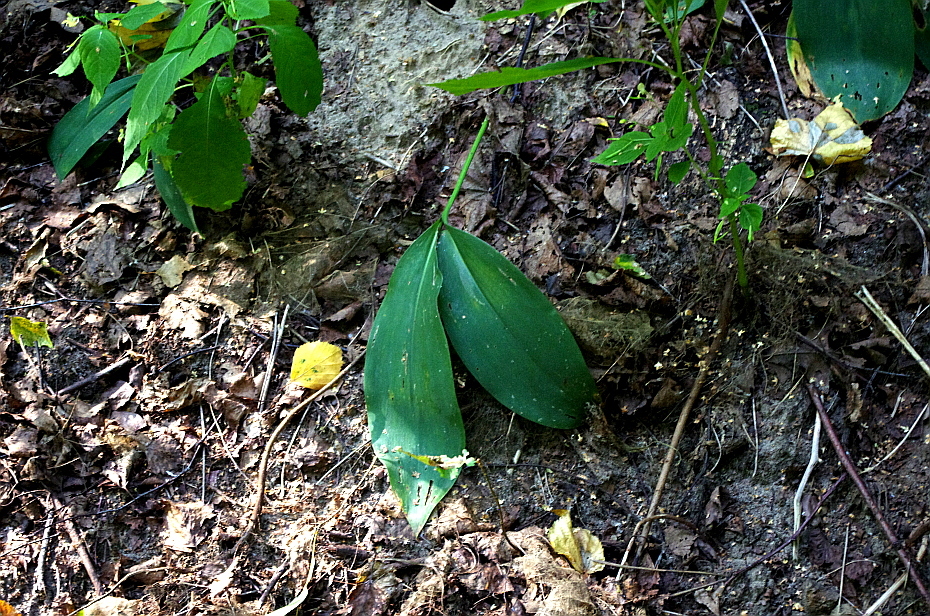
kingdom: Plantae
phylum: Tracheophyta
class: Liliopsida
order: Asparagales
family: Asparagaceae
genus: Convallaria
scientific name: Convallaria majalis
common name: Lily-of-the-valley
